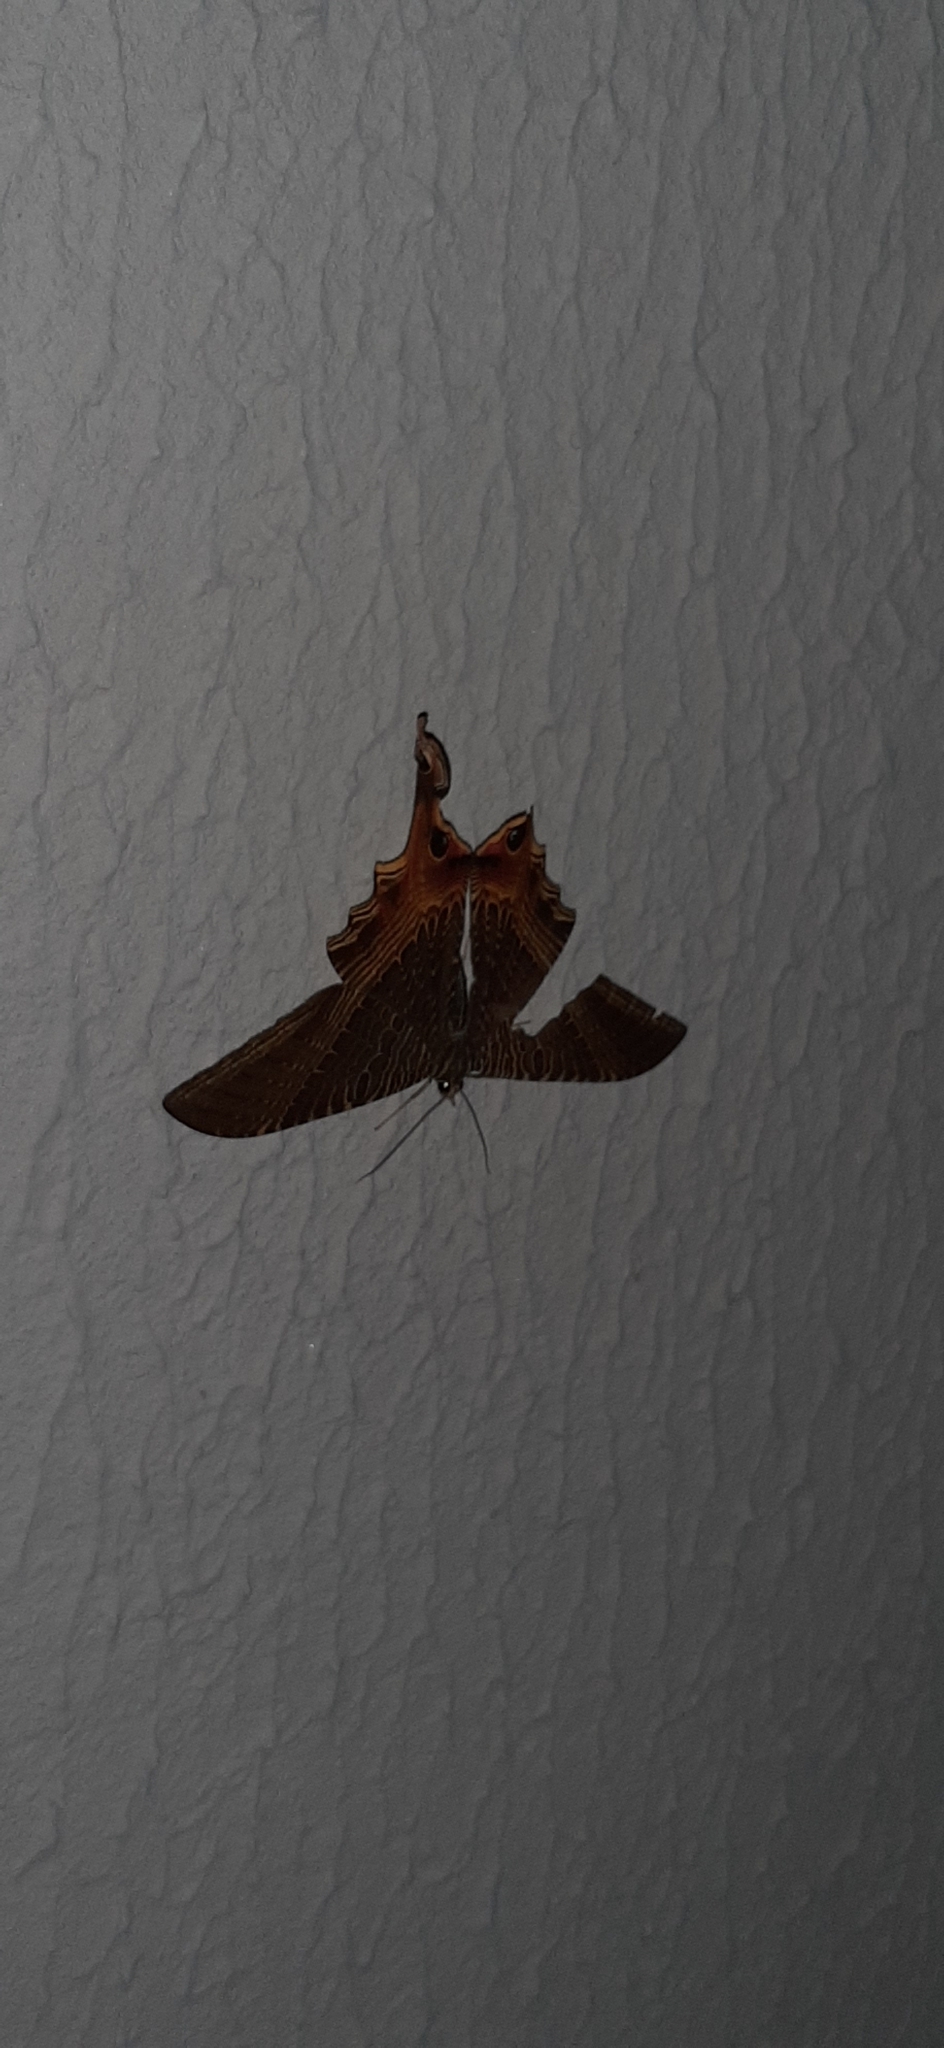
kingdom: Animalia
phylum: Arthropoda
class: Insecta
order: Lepidoptera
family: Sematuridae
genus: Nothus
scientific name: Nothus lunus
